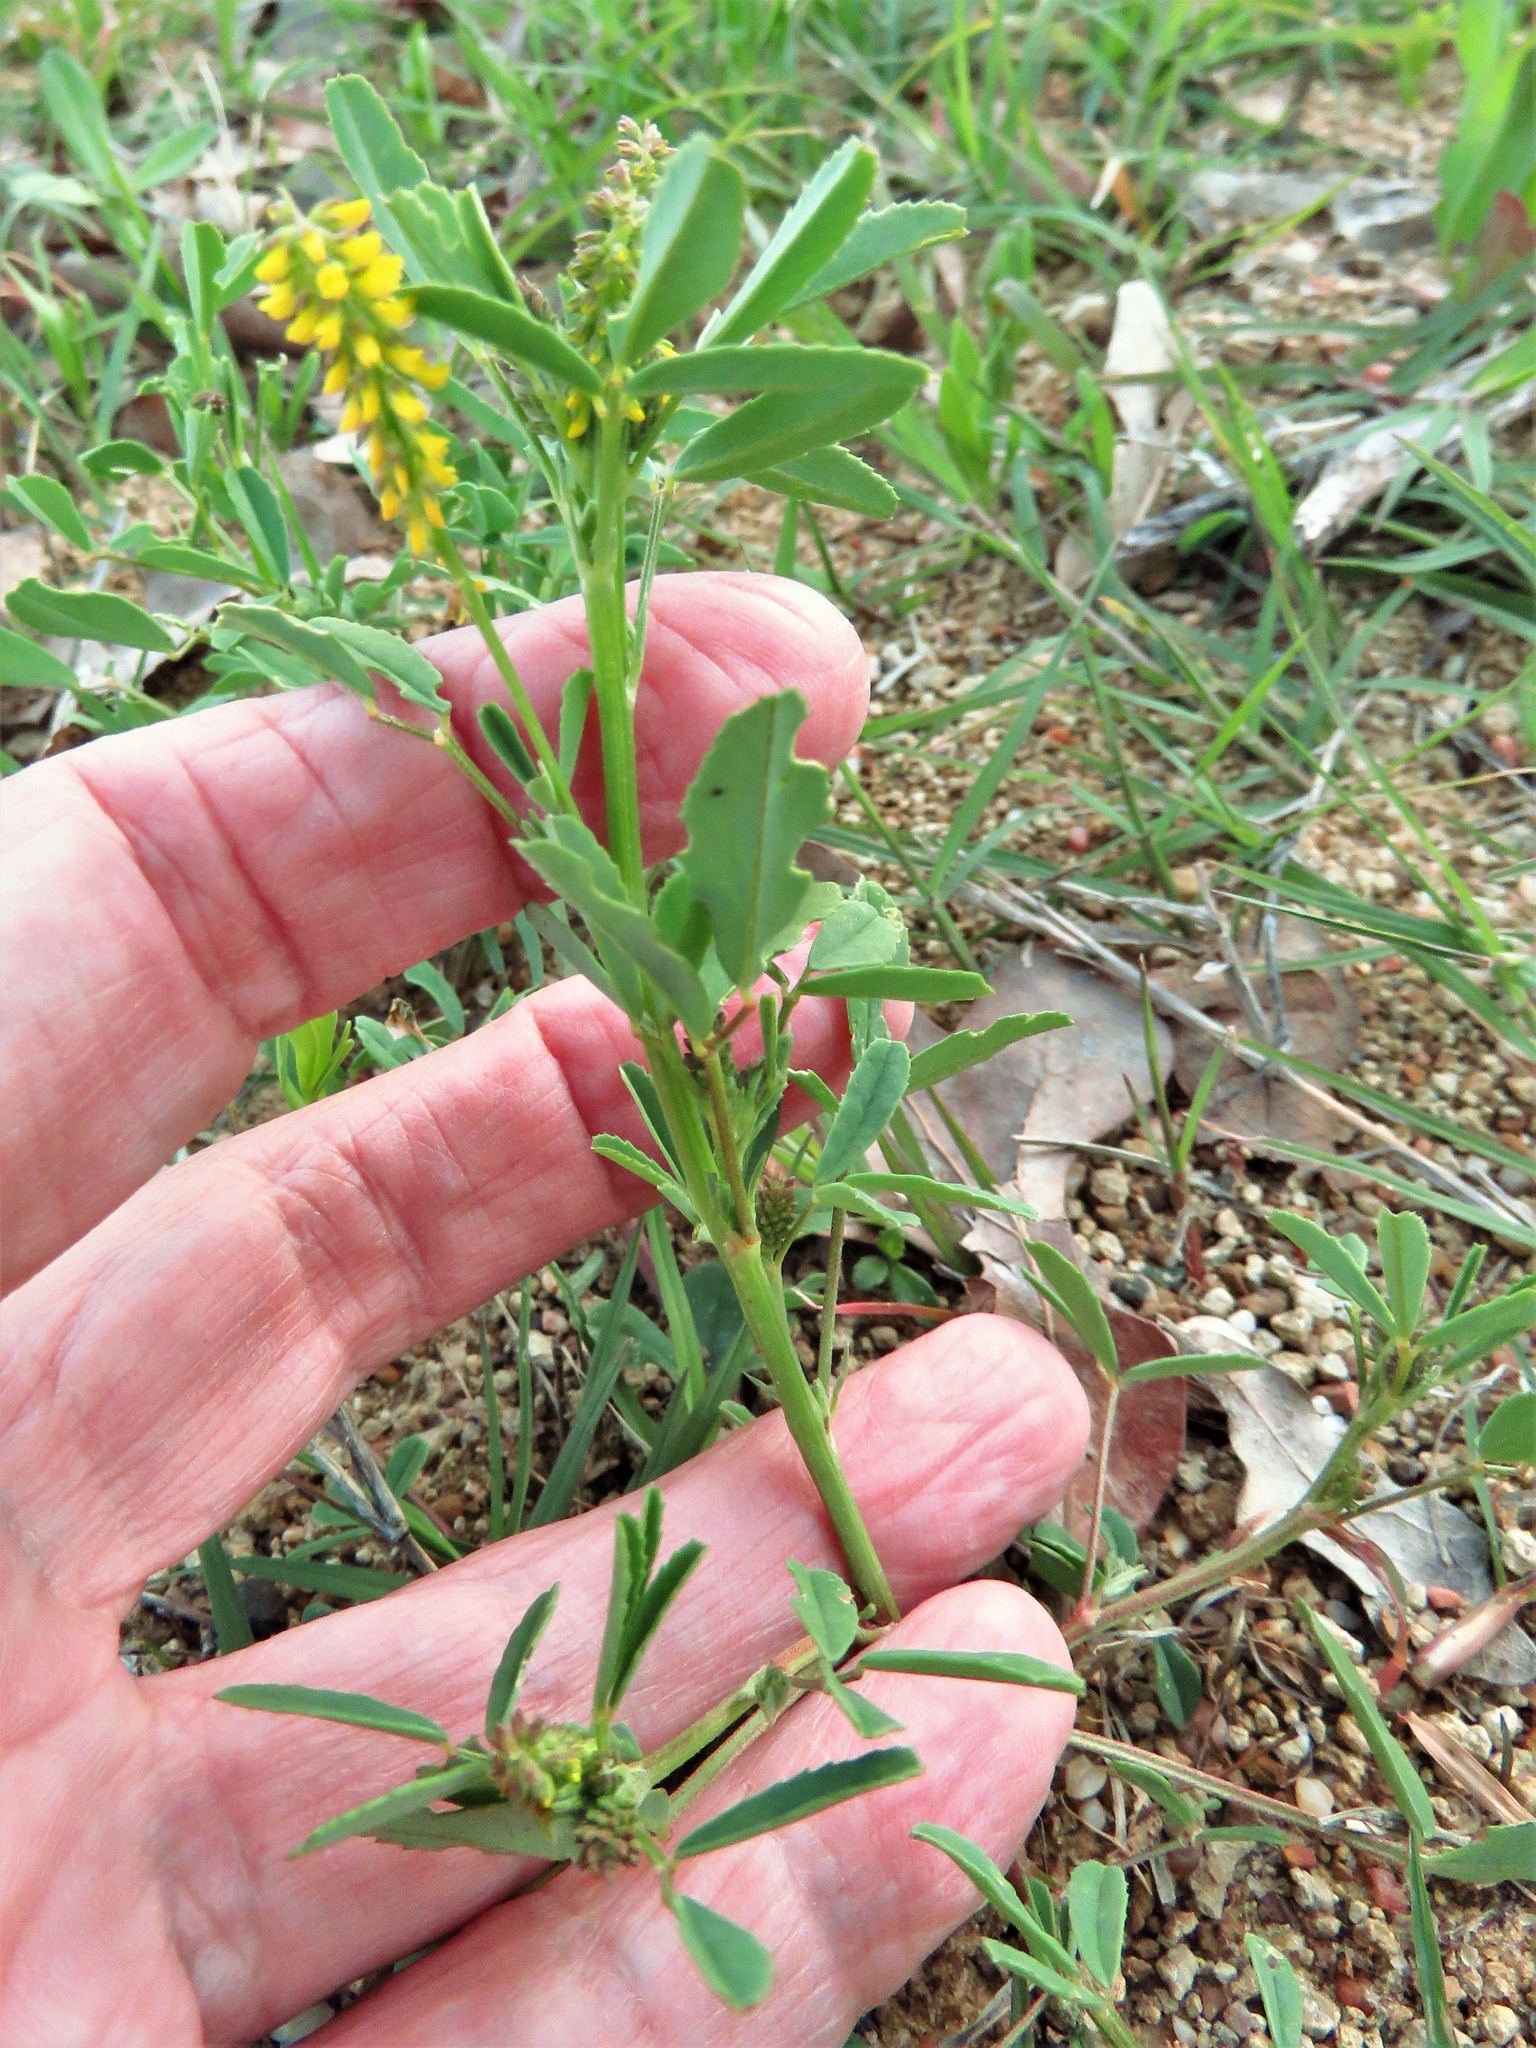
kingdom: Plantae
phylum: Tracheophyta
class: Magnoliopsida
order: Fabales
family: Fabaceae
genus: Melilotus
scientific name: Melilotus indicus
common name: Small melilot
